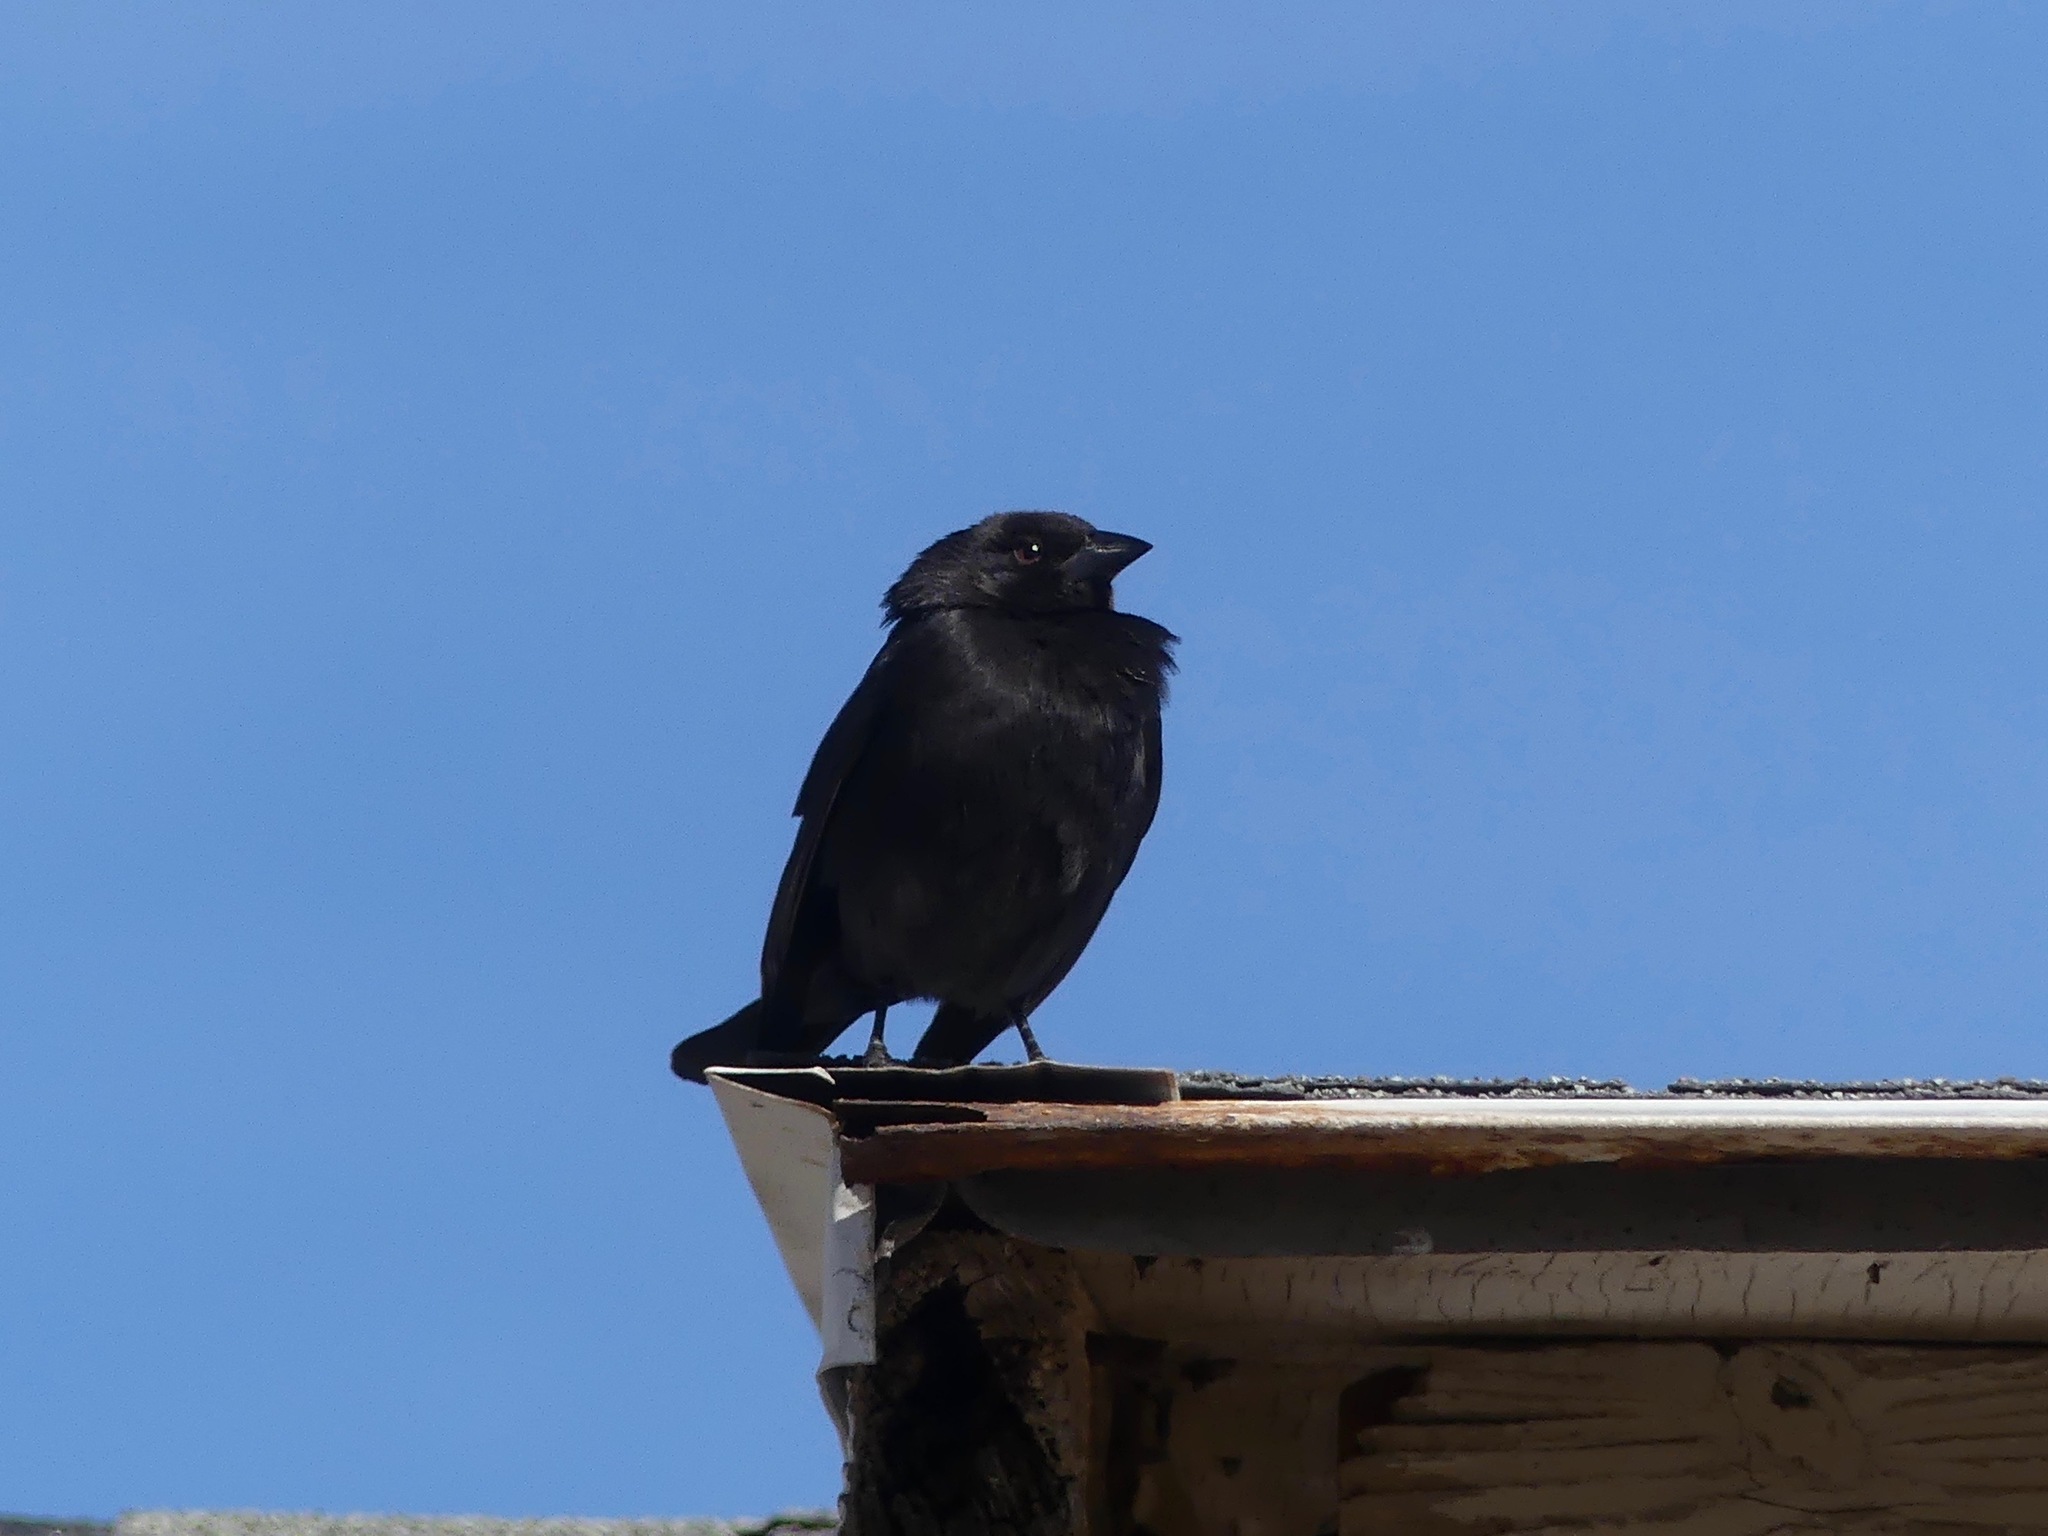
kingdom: Animalia
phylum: Chordata
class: Aves
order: Passeriformes
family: Icteridae
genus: Molothrus
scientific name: Molothrus aeneus
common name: Bronzed cowbird
